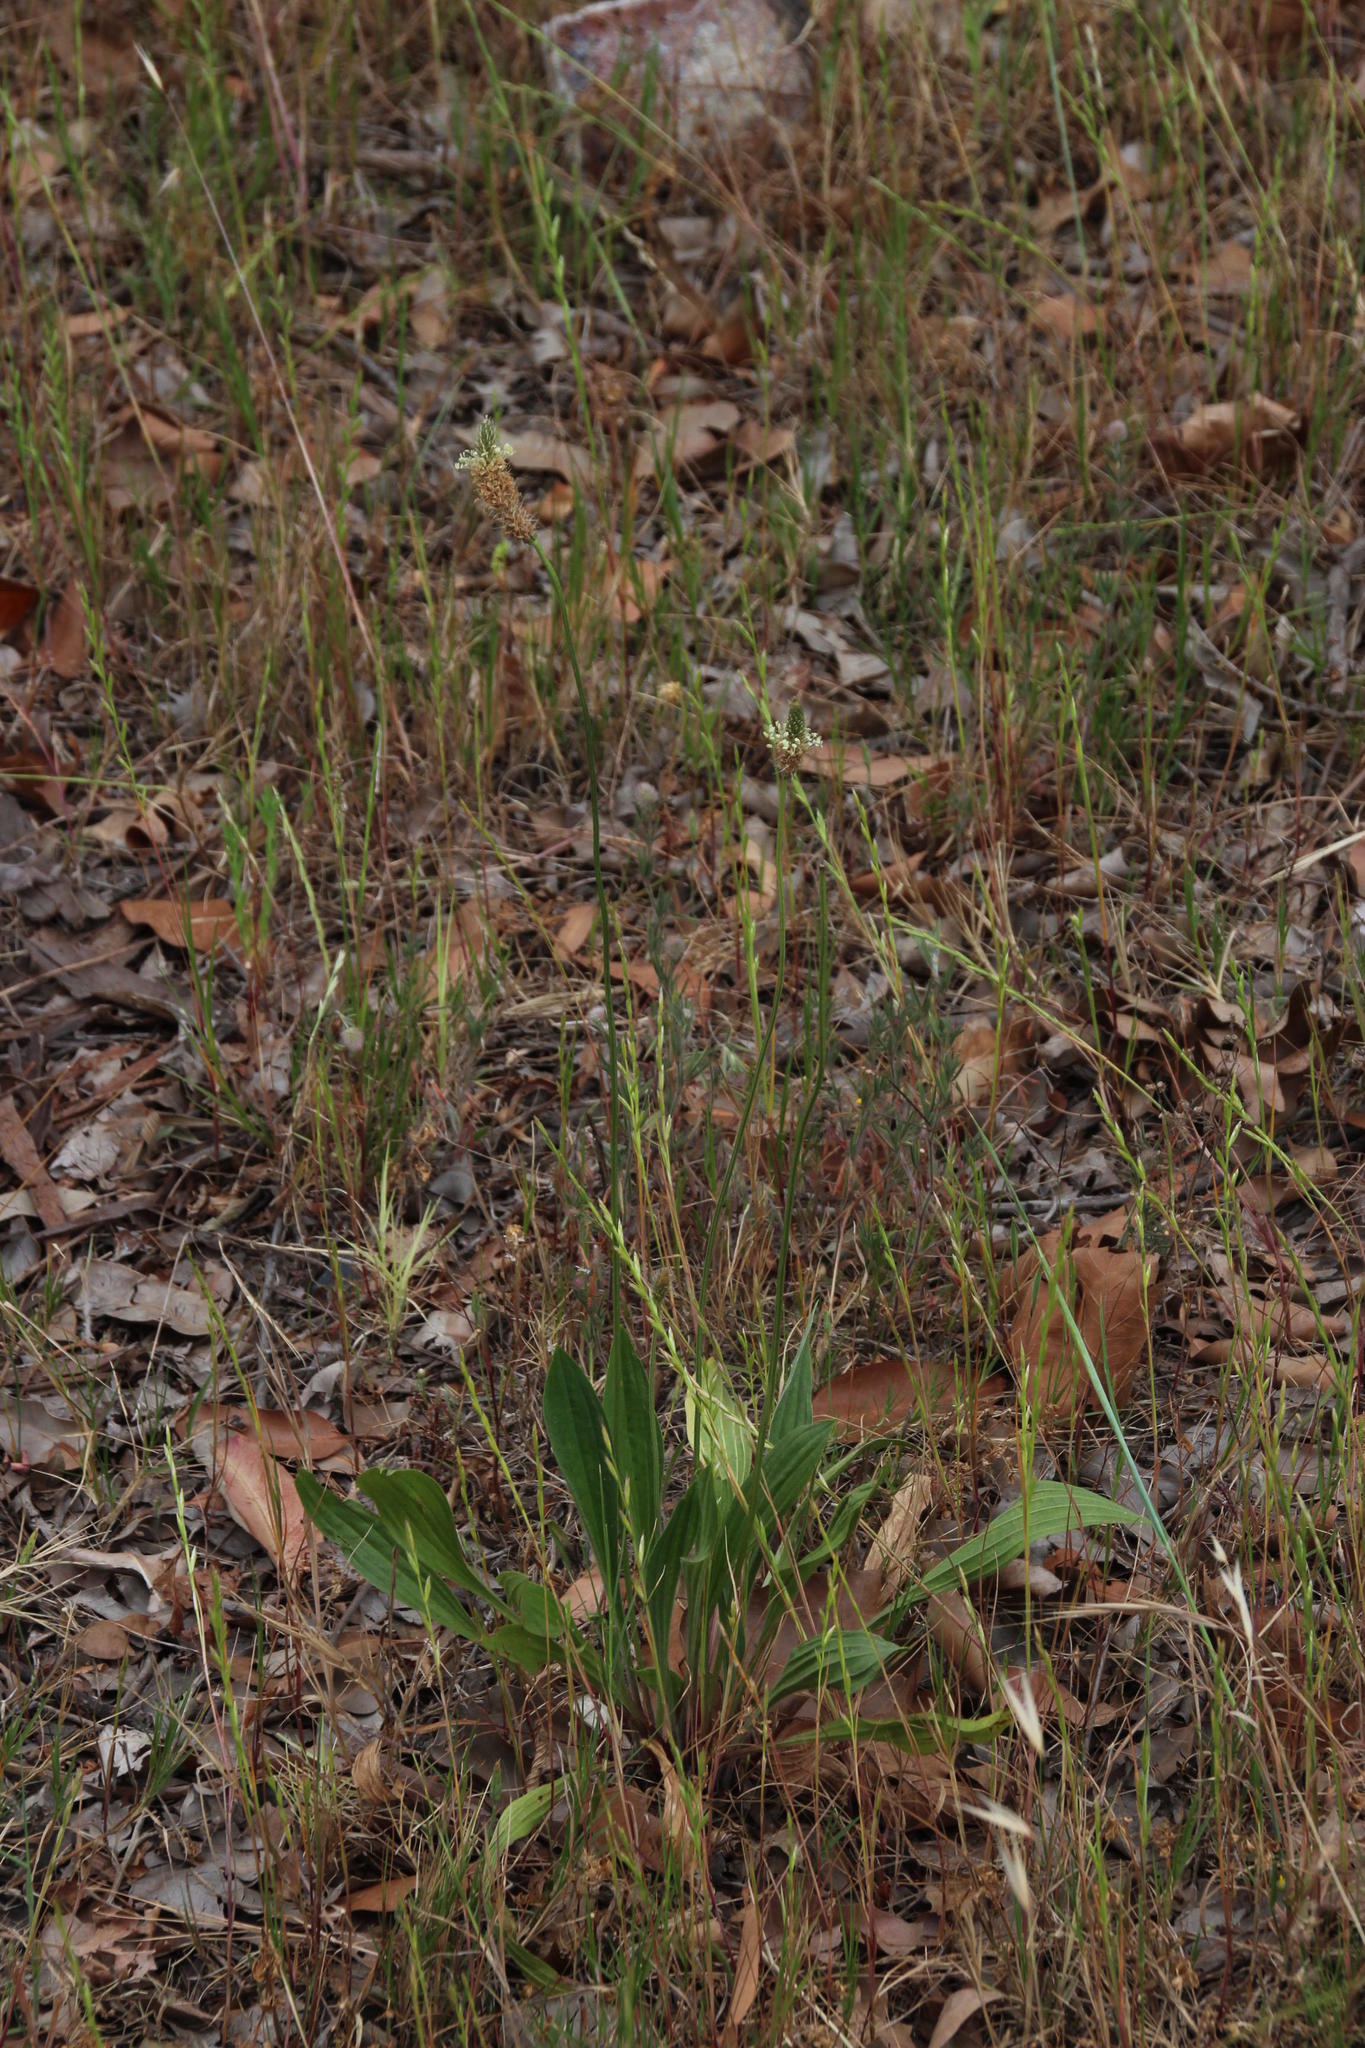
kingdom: Plantae
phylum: Tracheophyta
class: Magnoliopsida
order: Lamiales
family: Plantaginaceae
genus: Plantago
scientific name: Plantago lanceolata
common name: Ribwort plantain
